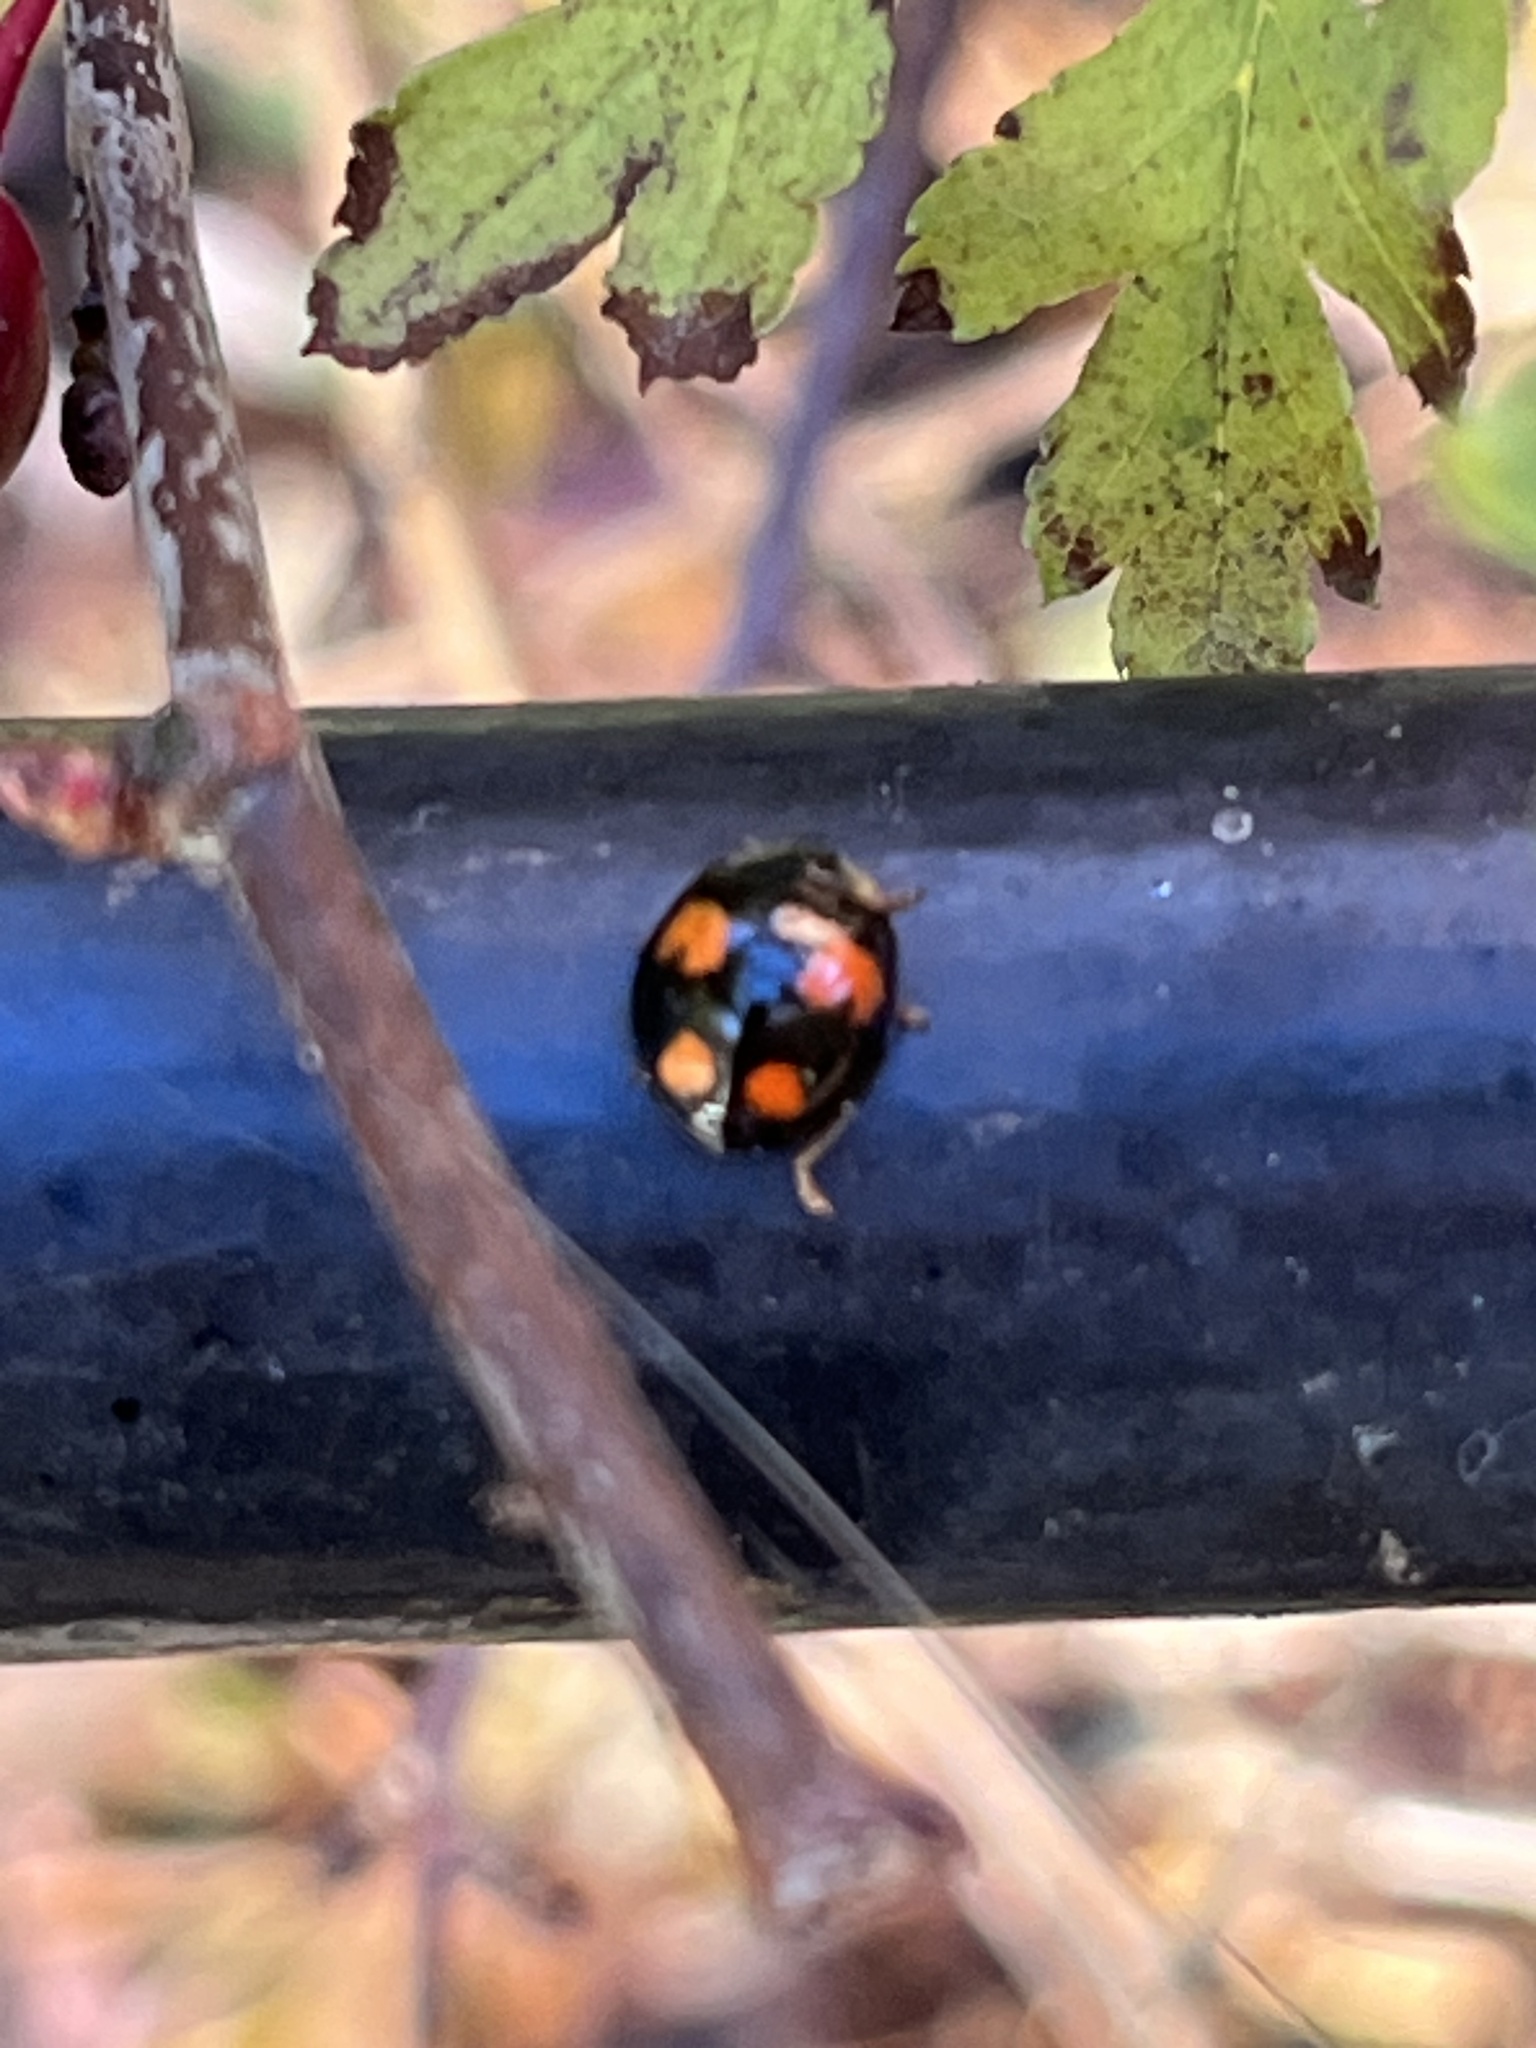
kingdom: Animalia
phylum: Arthropoda
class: Insecta
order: Coleoptera
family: Coccinellidae
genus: Harmonia
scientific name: Harmonia axyridis
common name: Harlequin ladybird
